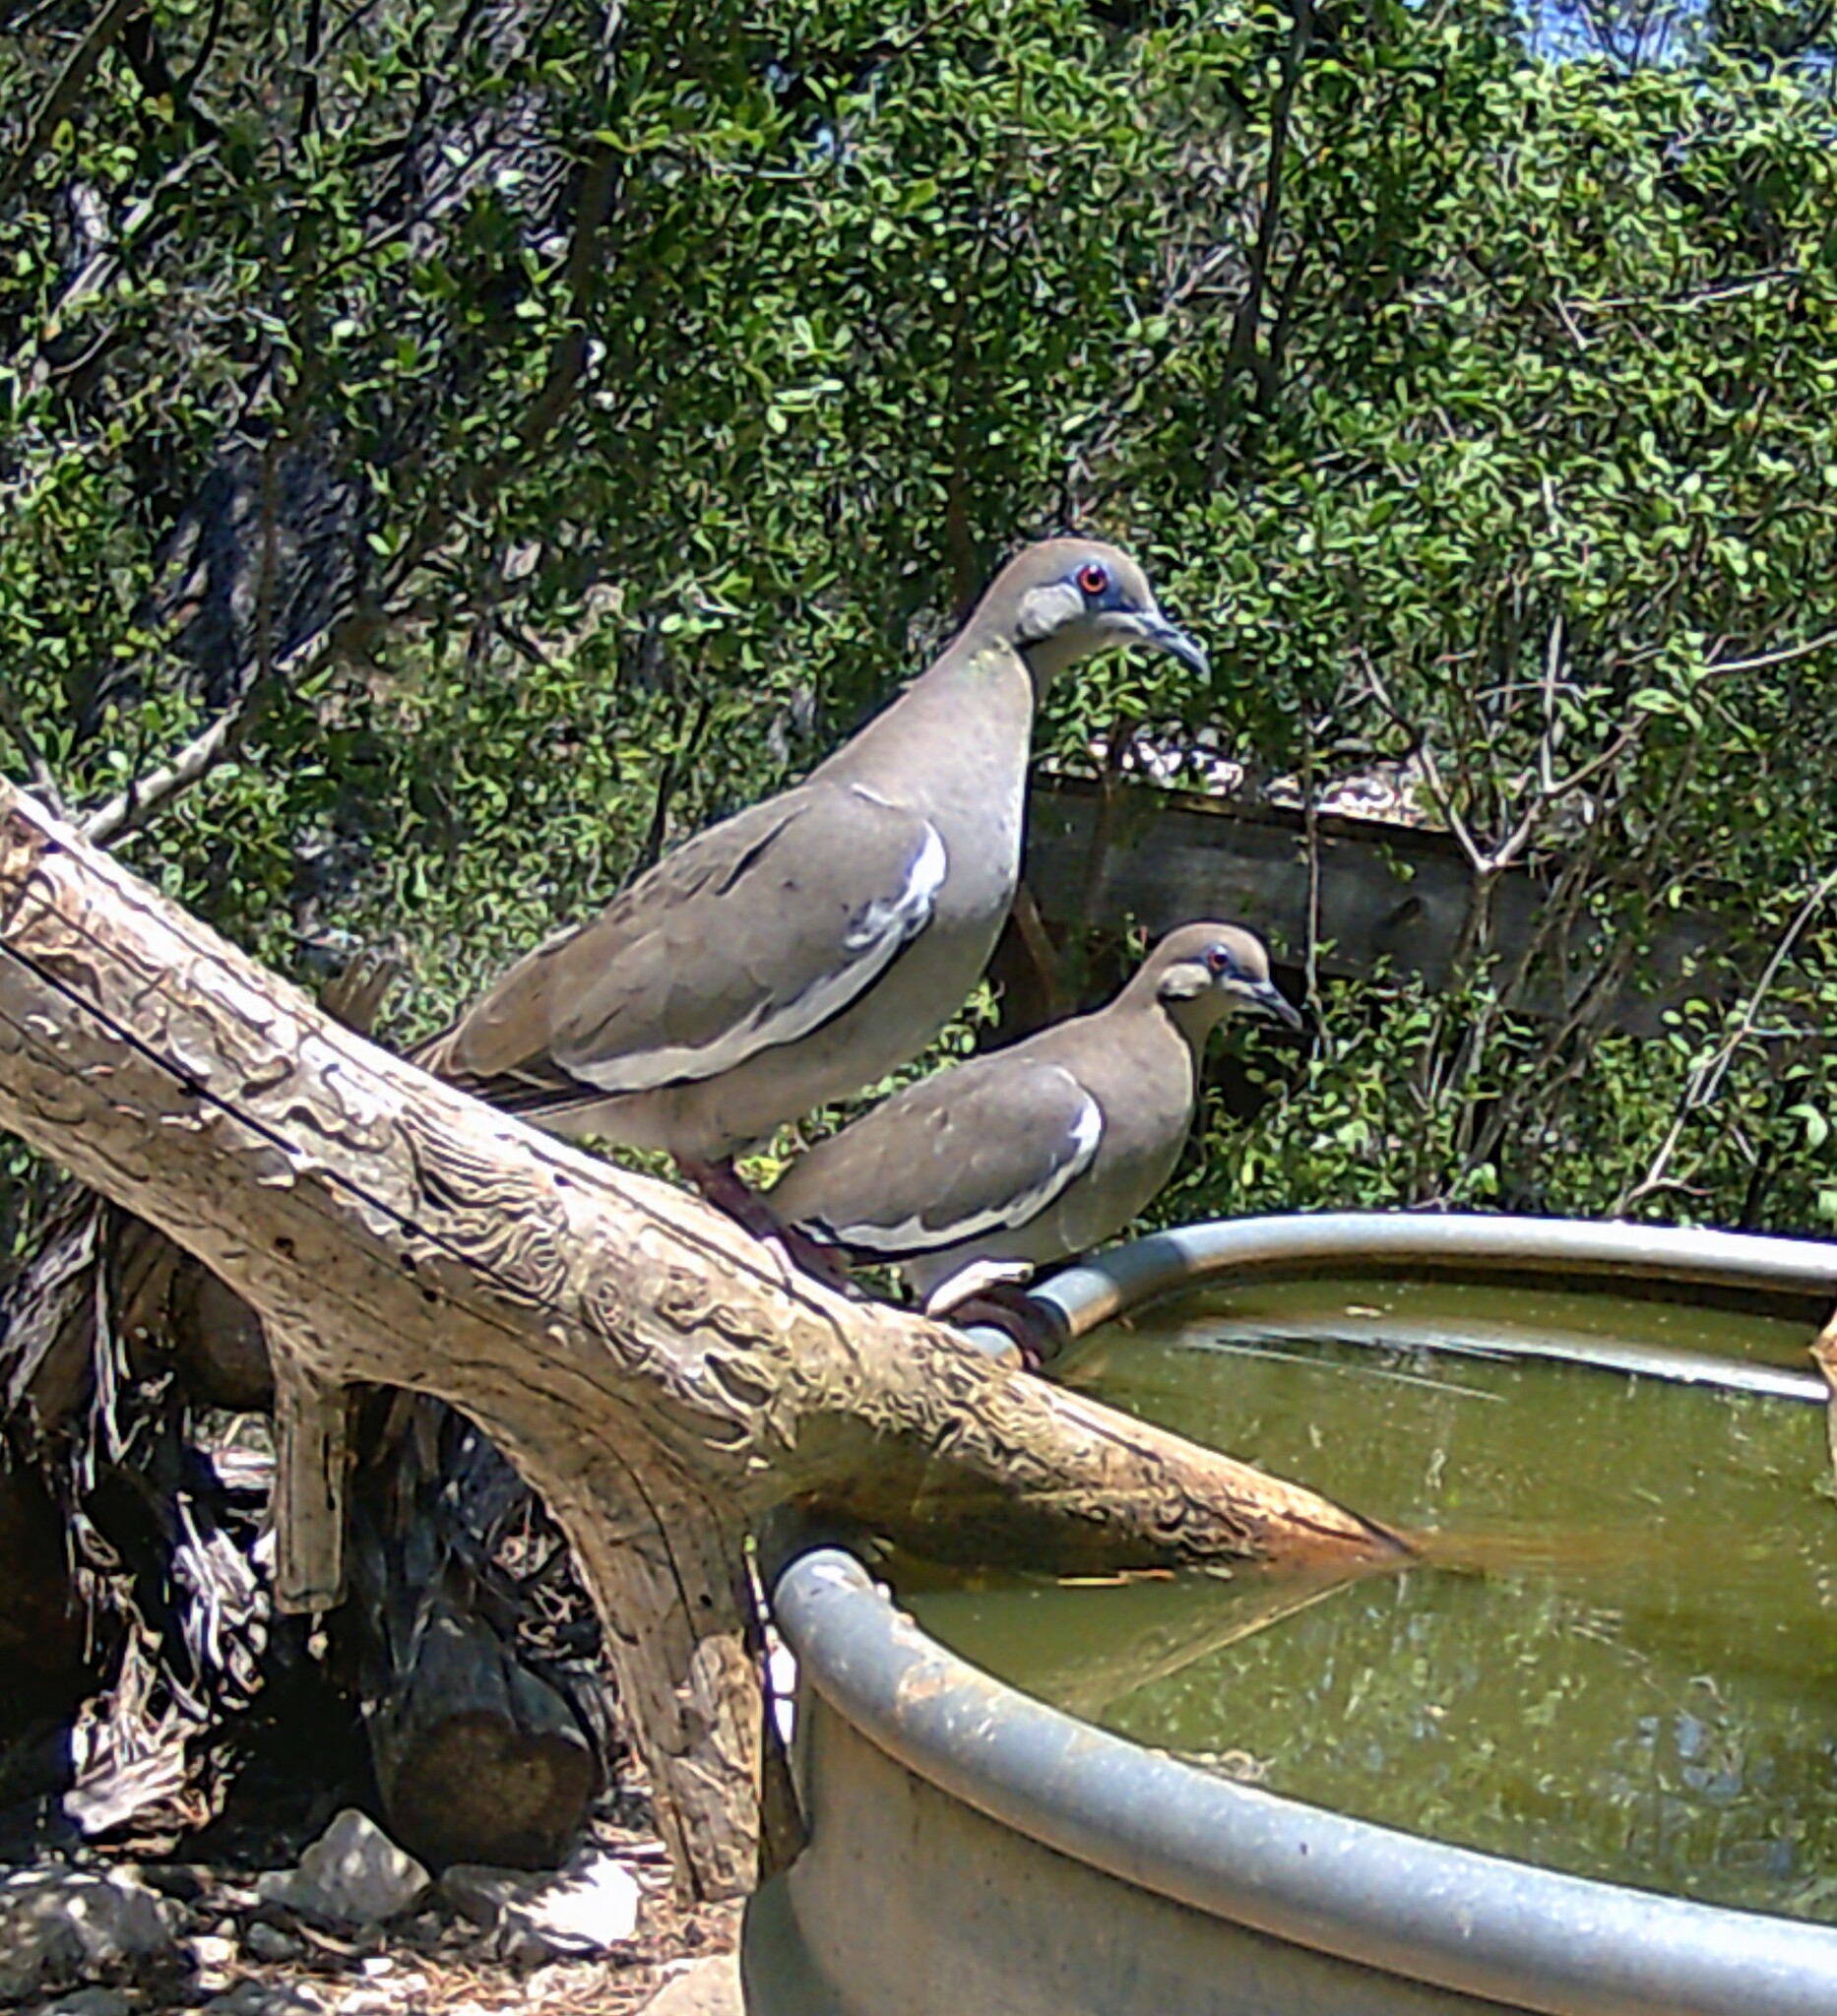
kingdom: Animalia
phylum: Chordata
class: Aves
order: Columbiformes
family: Columbidae
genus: Zenaida
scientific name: Zenaida asiatica
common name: White-winged dove
